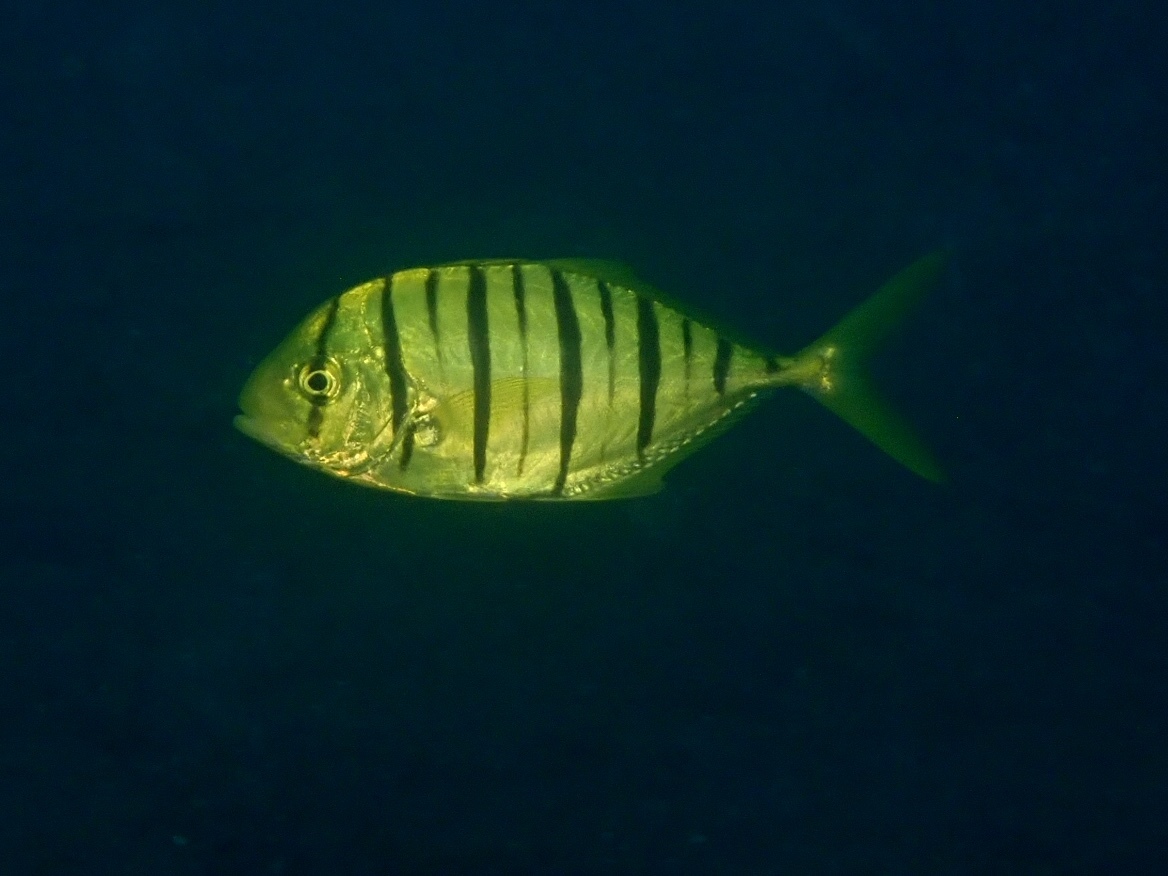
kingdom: Animalia
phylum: Chordata
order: Perciformes
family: Carangidae
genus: Gnathanodon
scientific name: Gnathanodon speciosus
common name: Golden toothless trevally
